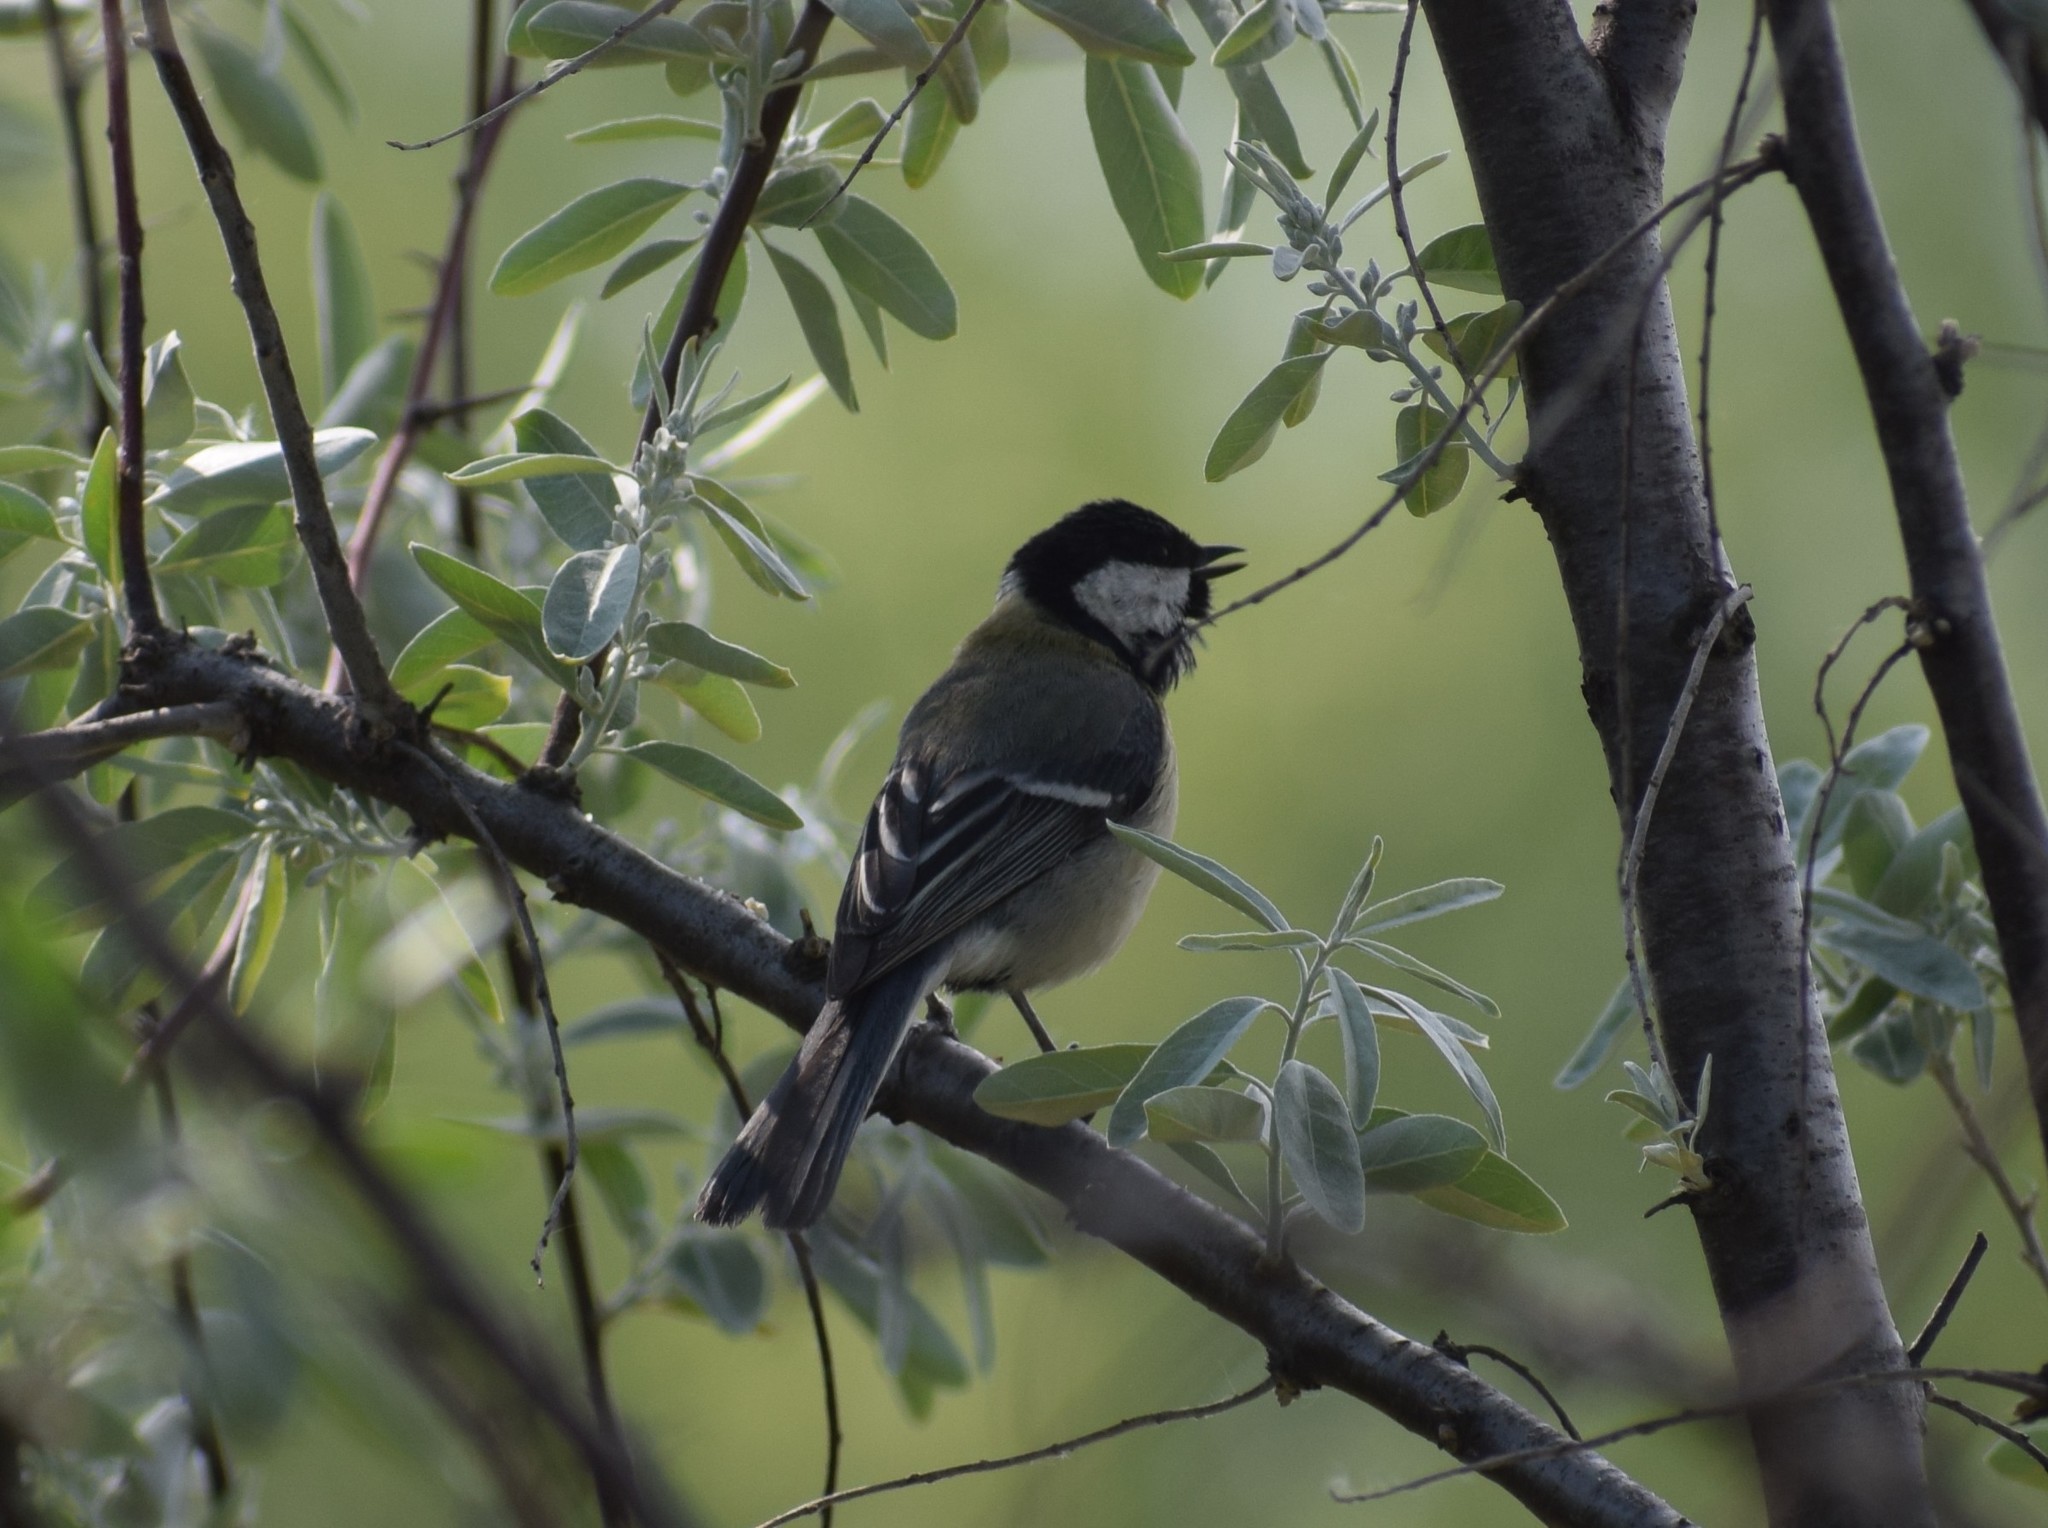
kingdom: Animalia
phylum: Chordata
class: Aves
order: Passeriformes
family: Paridae
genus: Parus
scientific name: Parus major
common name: Great tit
